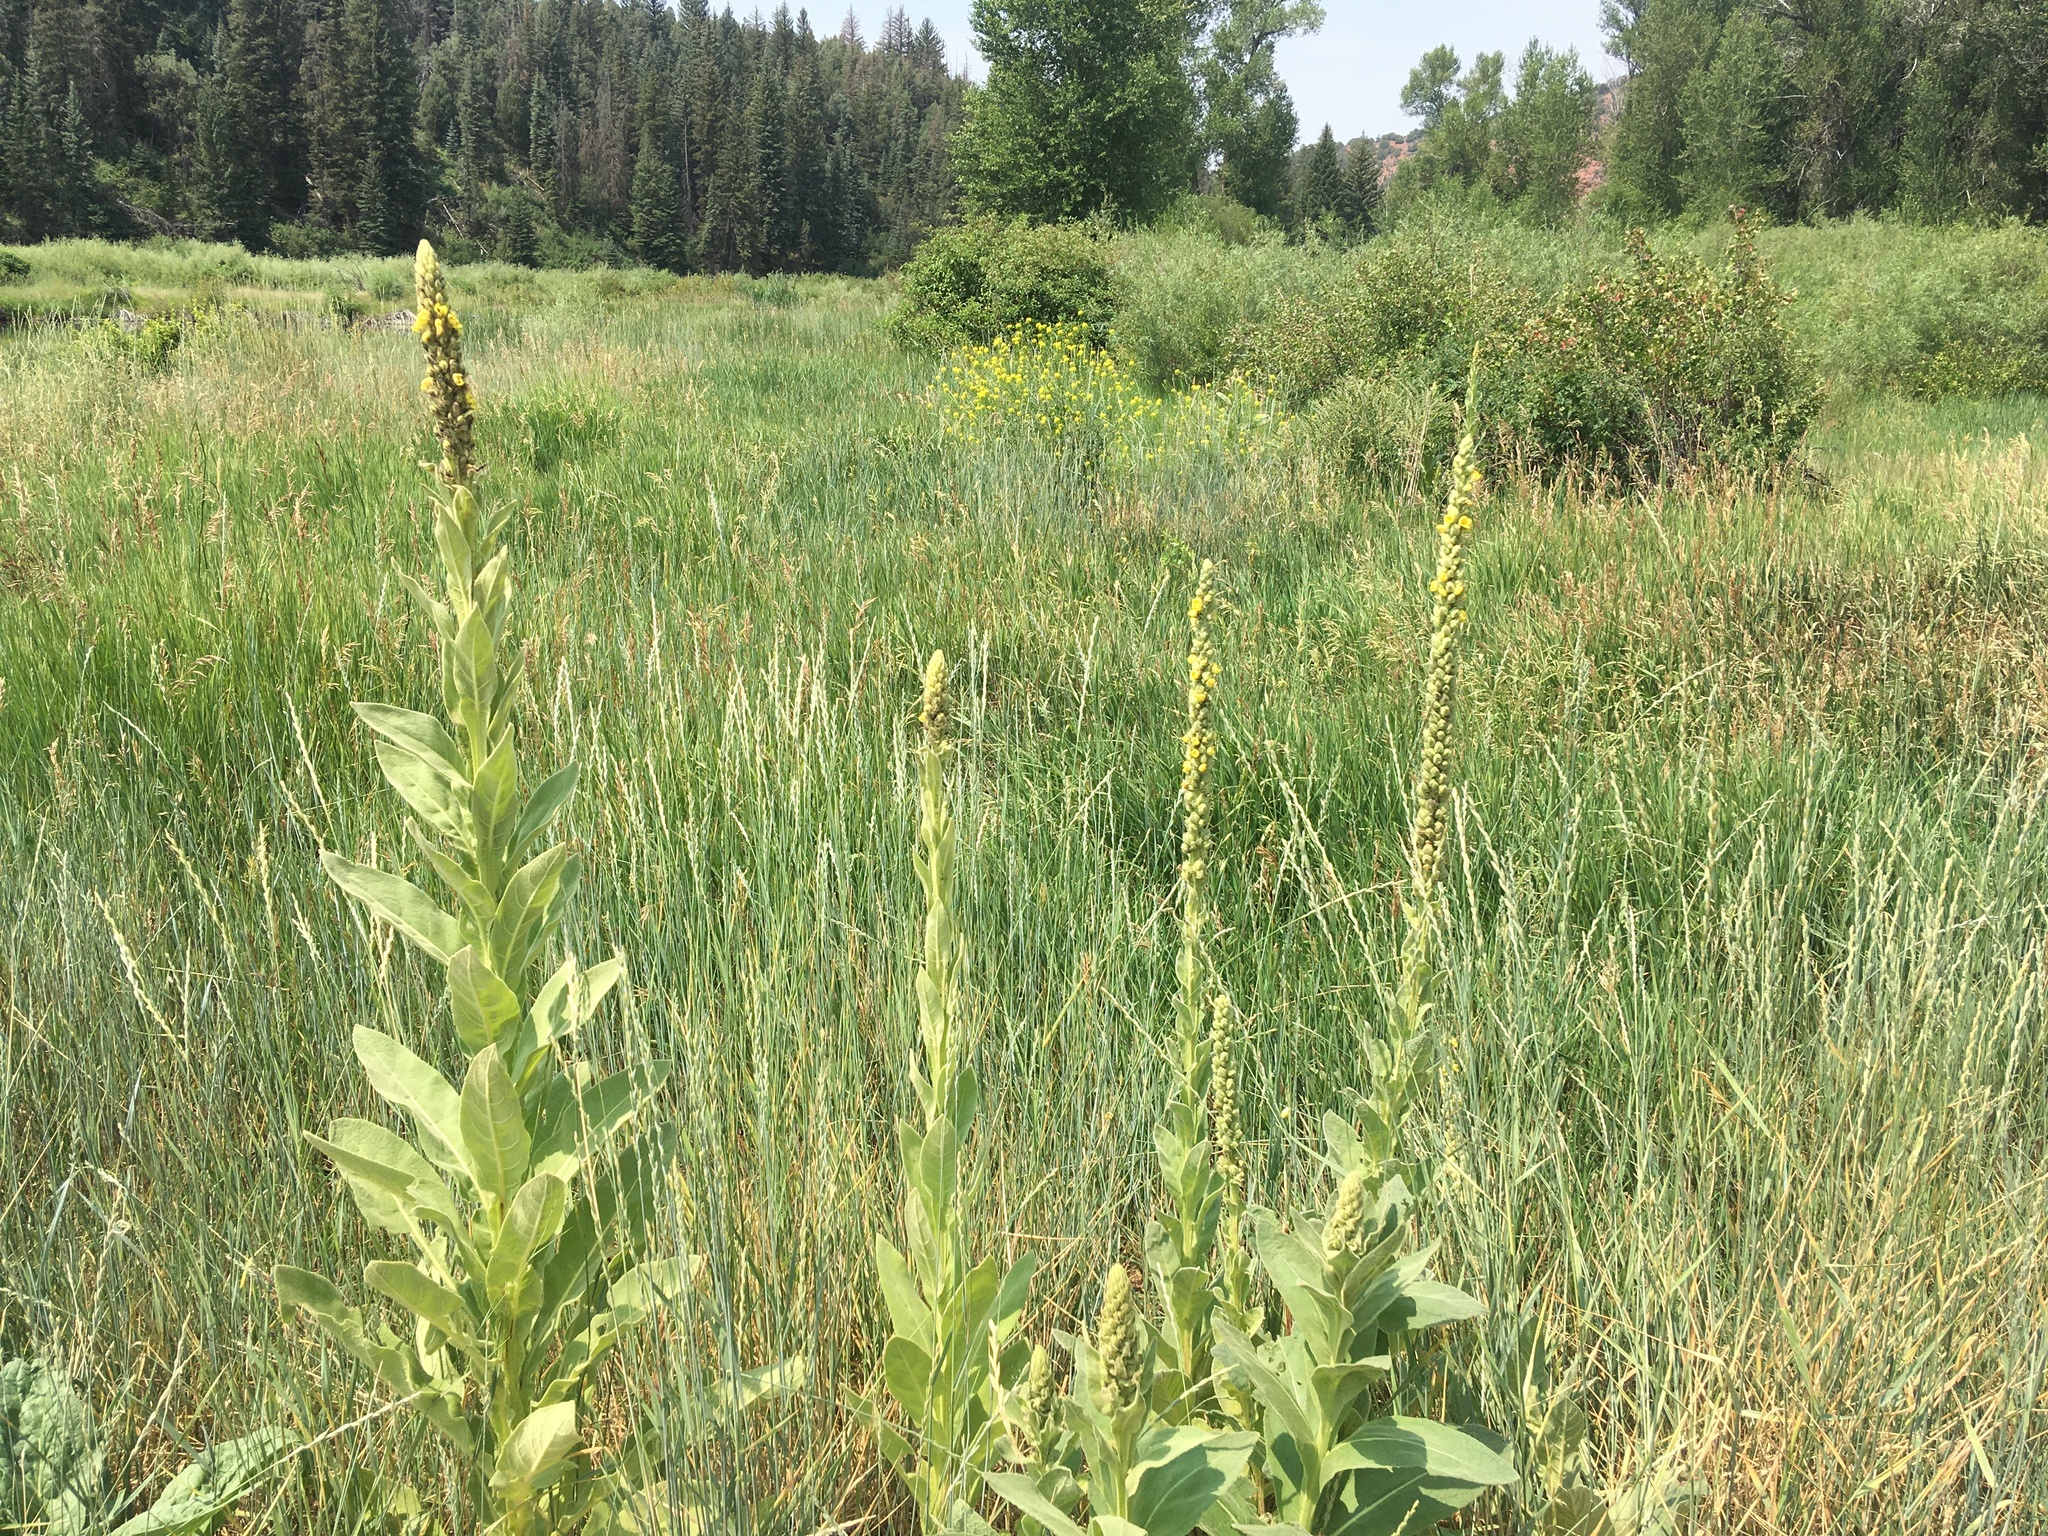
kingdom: Plantae
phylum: Tracheophyta
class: Magnoliopsida
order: Lamiales
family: Scrophulariaceae
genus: Verbascum
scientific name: Verbascum thapsus
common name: Common mullein
